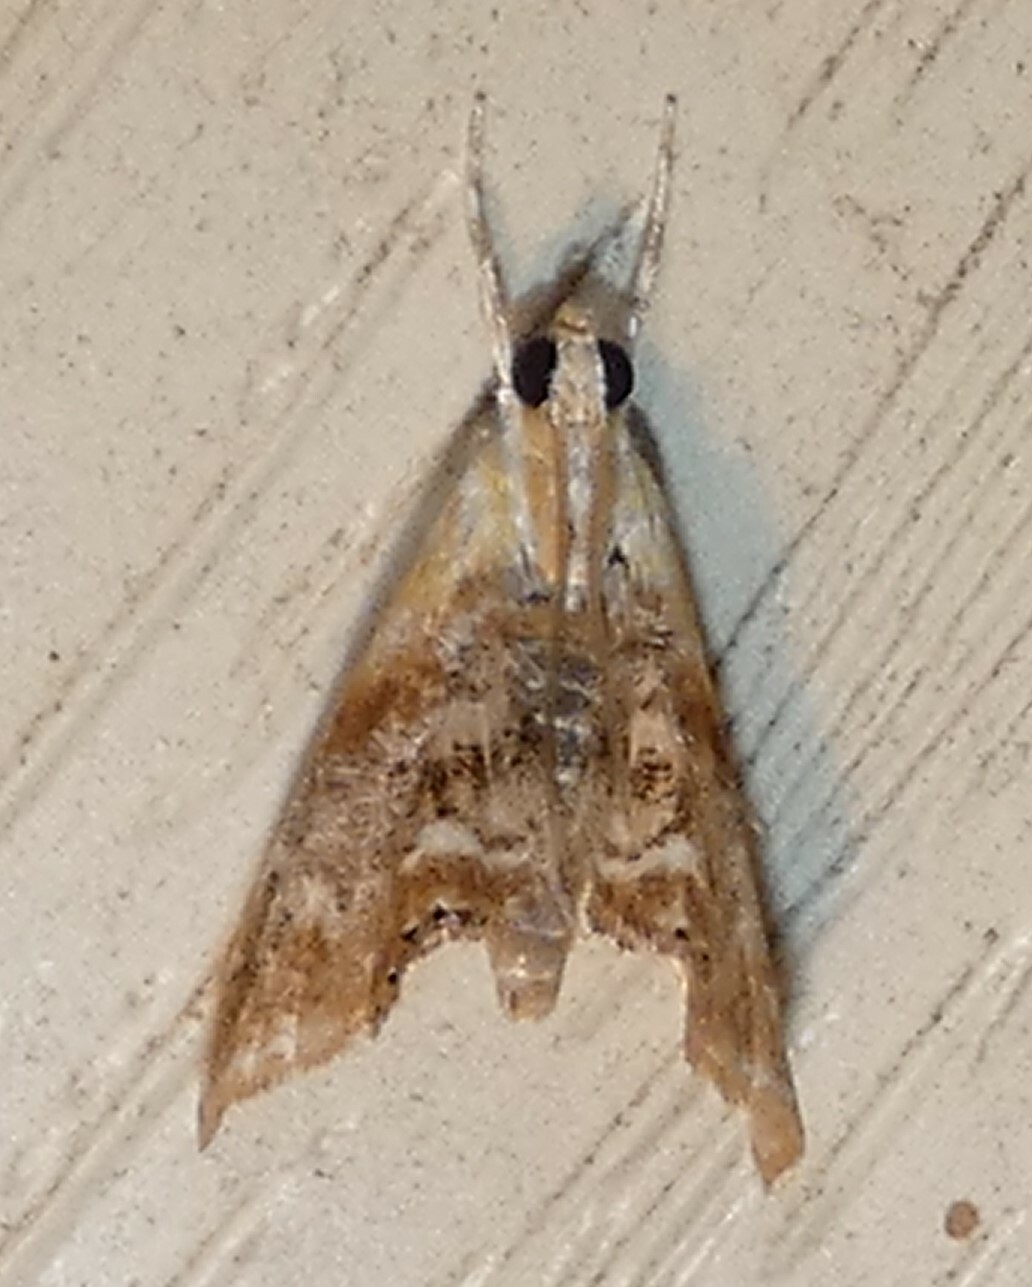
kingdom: Animalia
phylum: Arthropoda
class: Insecta
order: Lepidoptera
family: Crambidae
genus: Dicymolomia
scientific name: Dicymolomia julianalis
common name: Julia's dicymolomia moth
